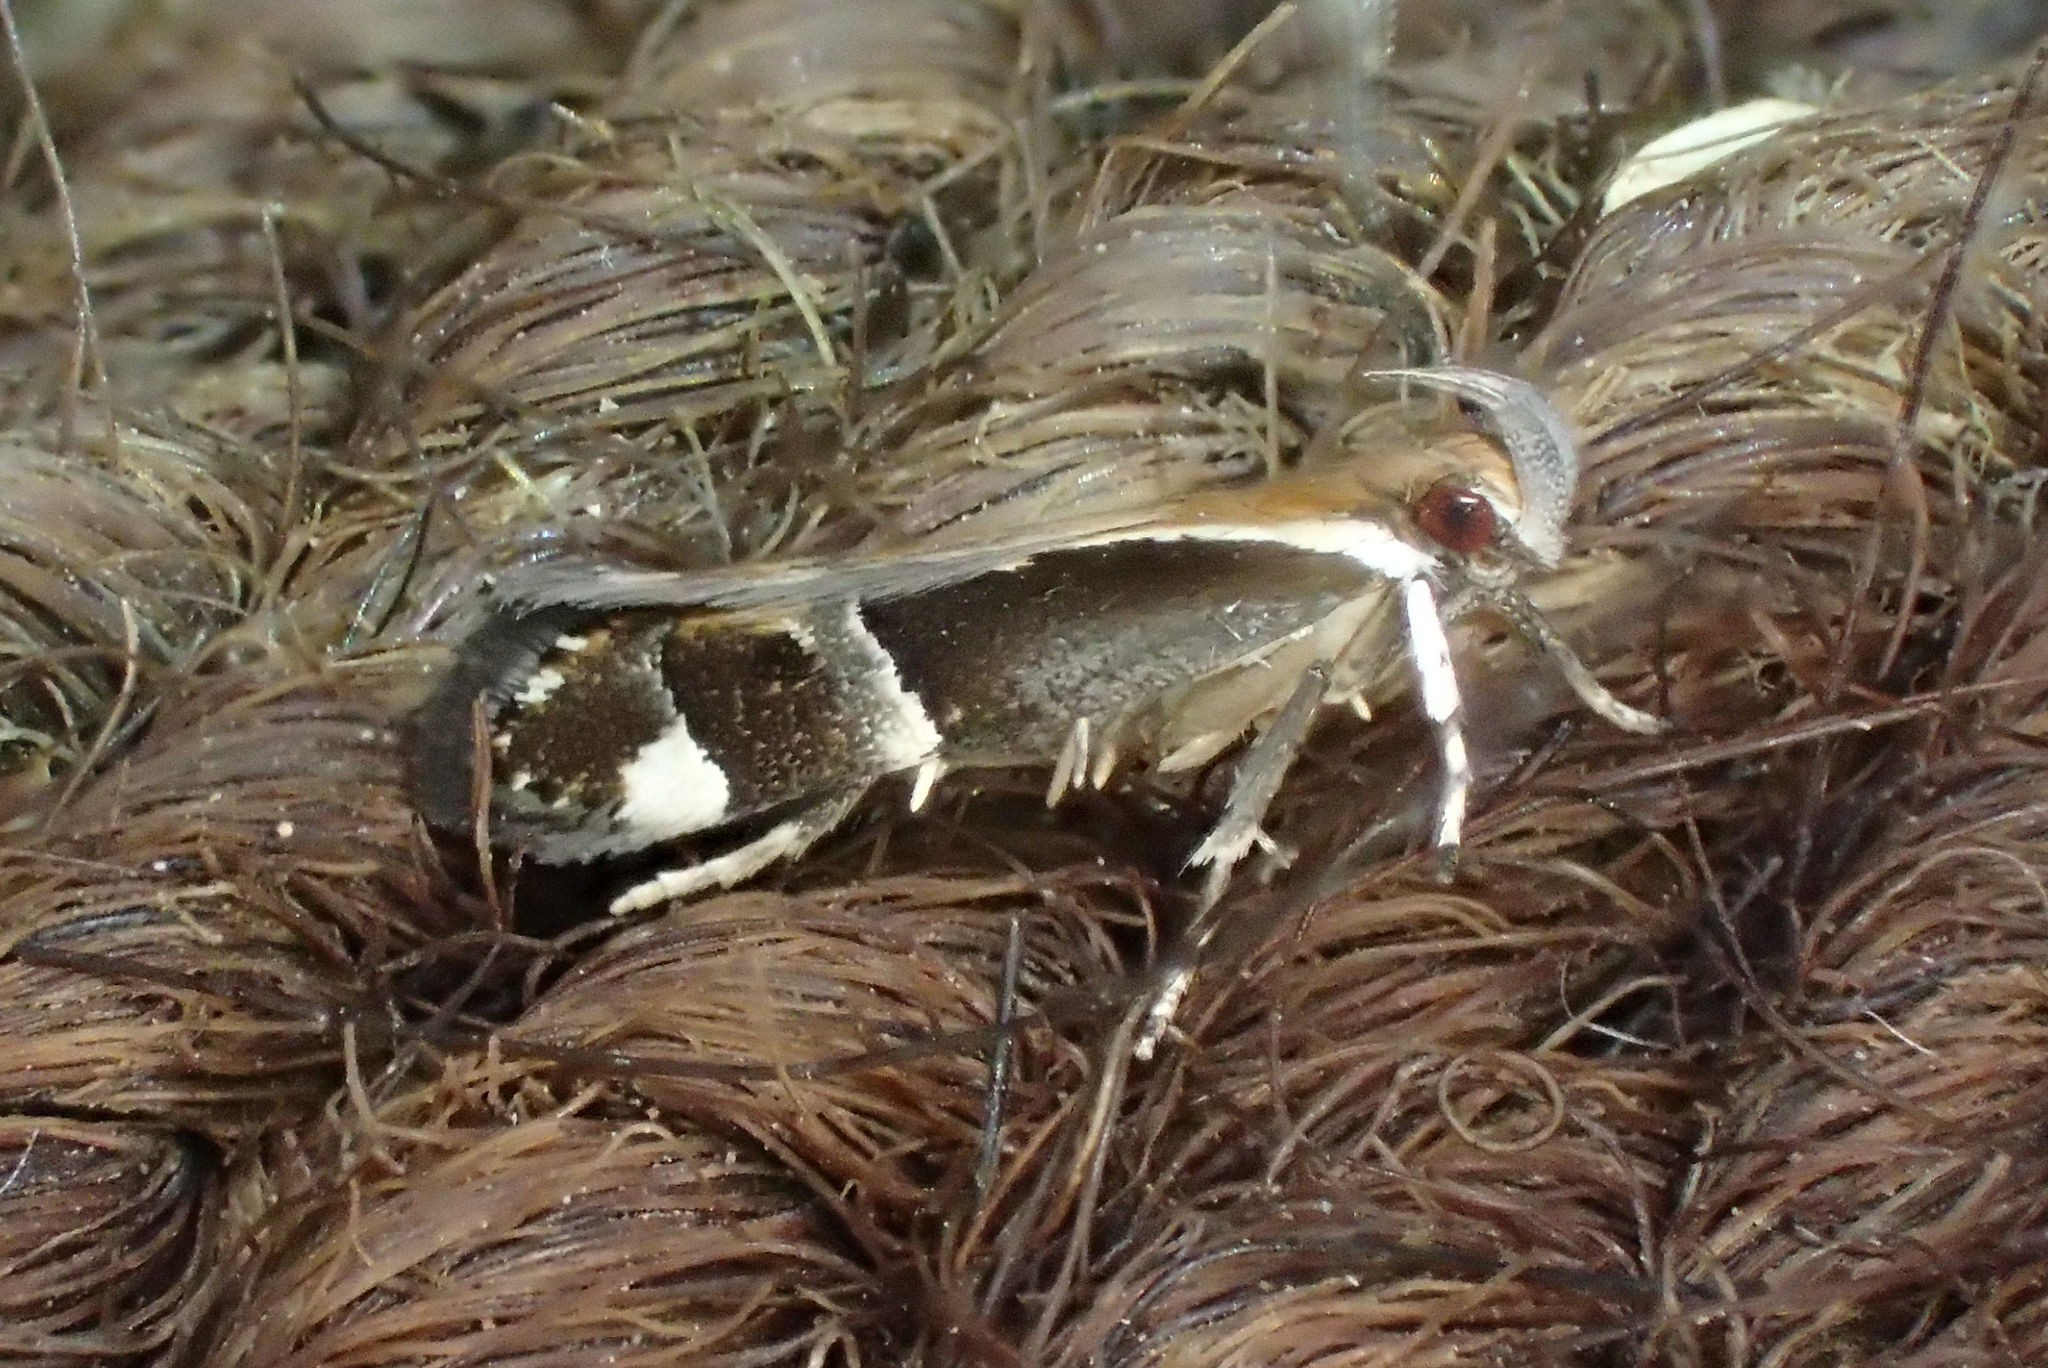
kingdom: Animalia
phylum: Arthropoda
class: Insecta
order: Lepidoptera
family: Gelechiidae
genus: Helcystogramma
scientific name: Helcystogramma lamprostoma
